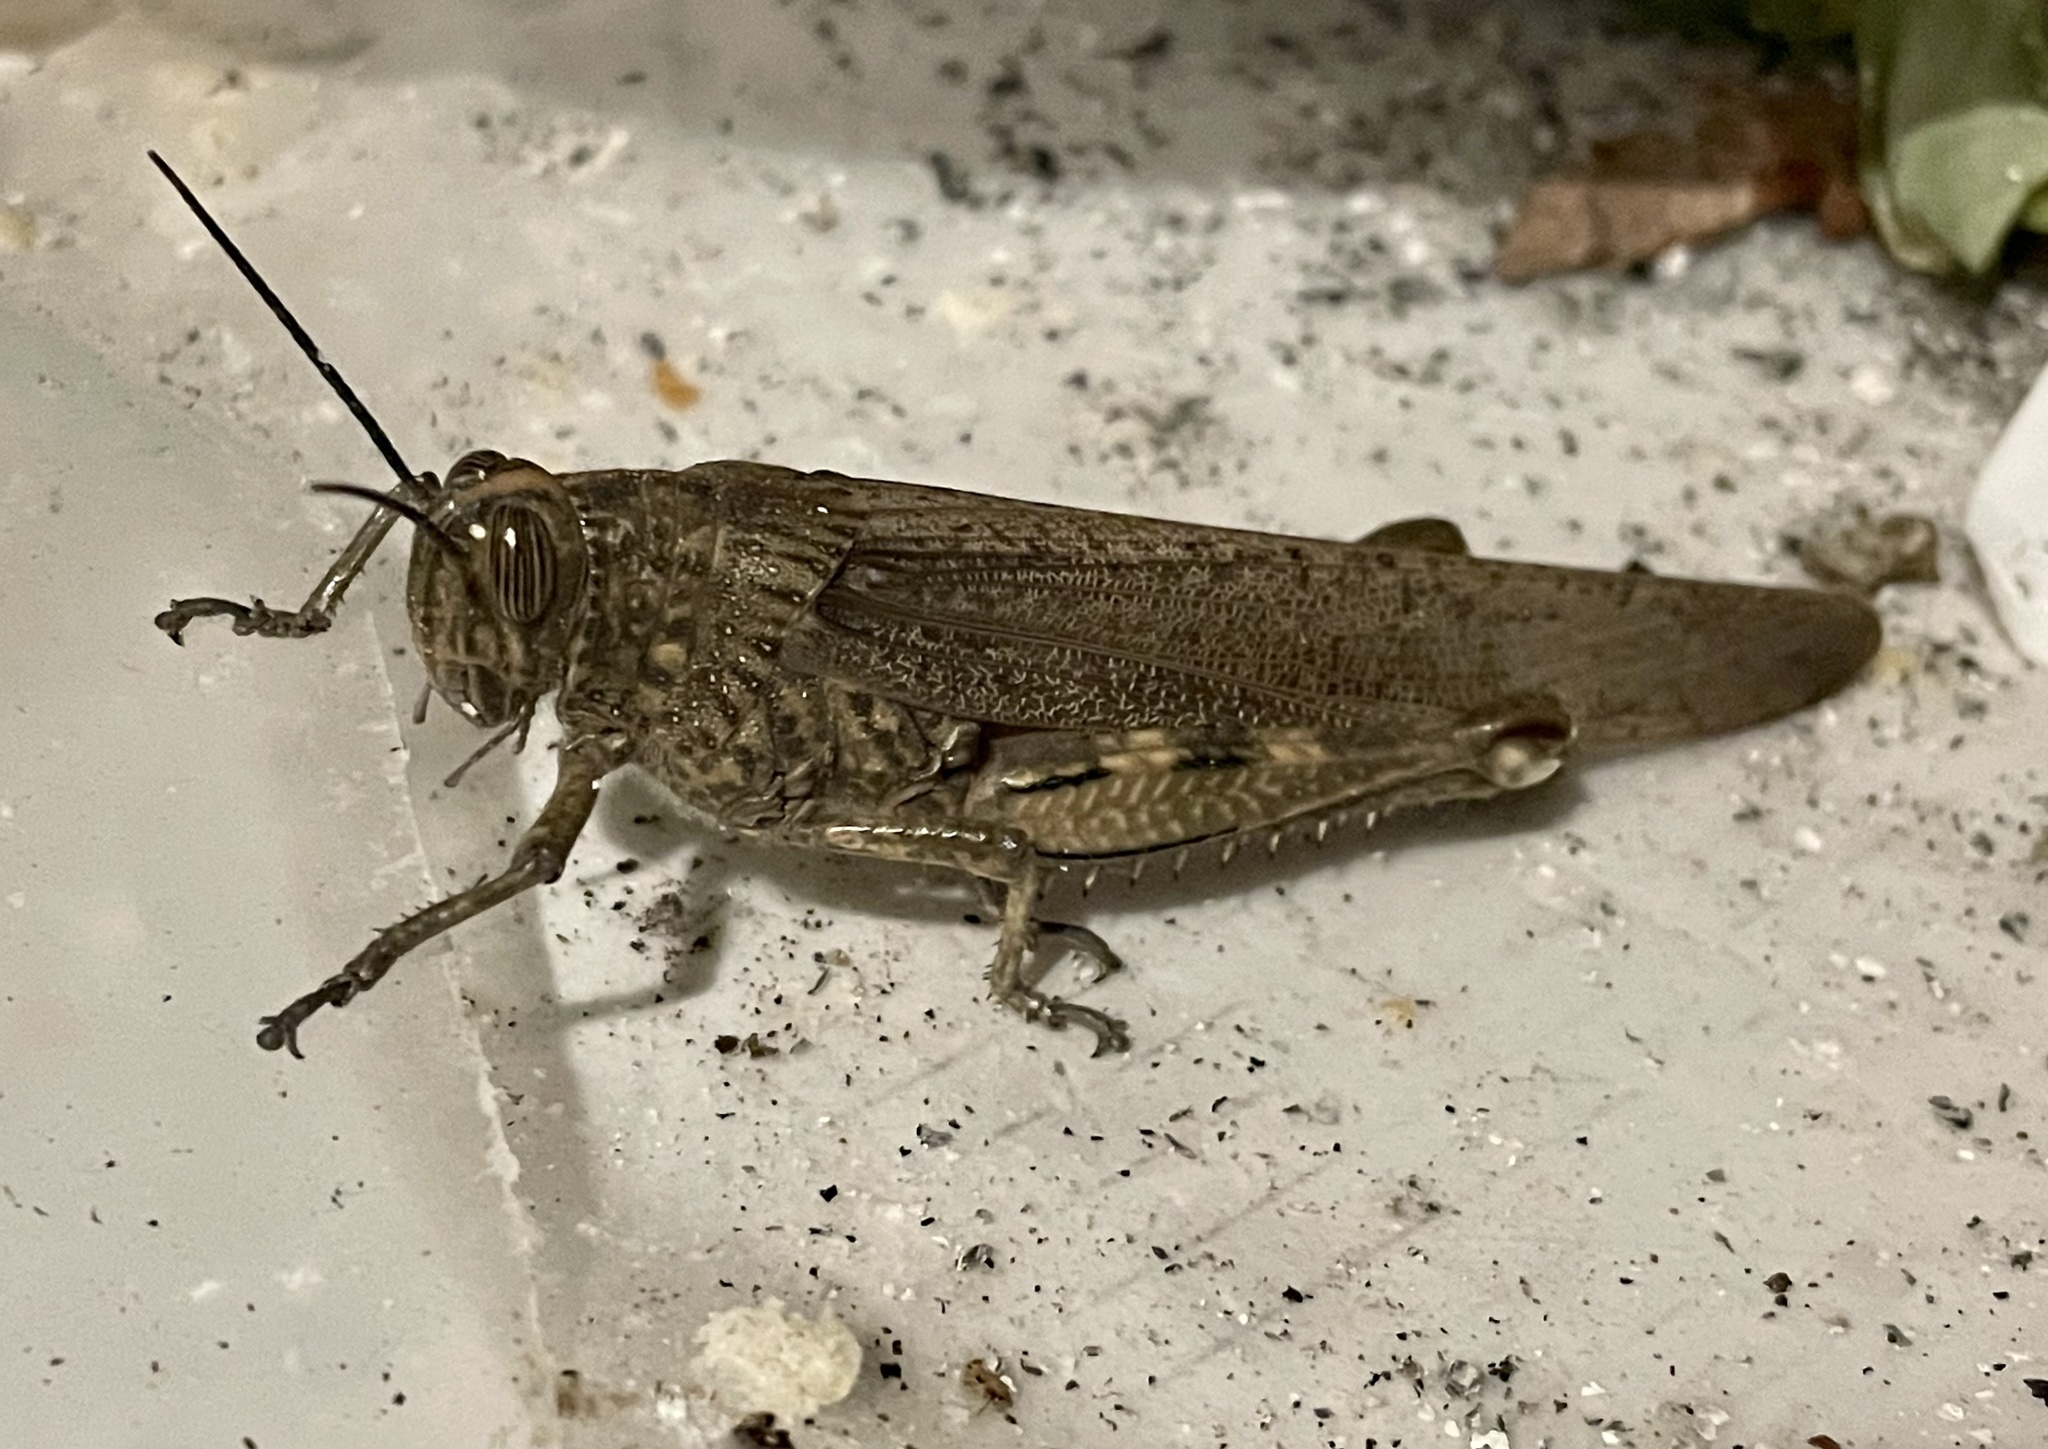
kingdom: Animalia
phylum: Arthropoda
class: Insecta
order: Orthoptera
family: Acrididae
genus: Anacridium
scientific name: Anacridium aegyptium
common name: Egyptian grasshopper
